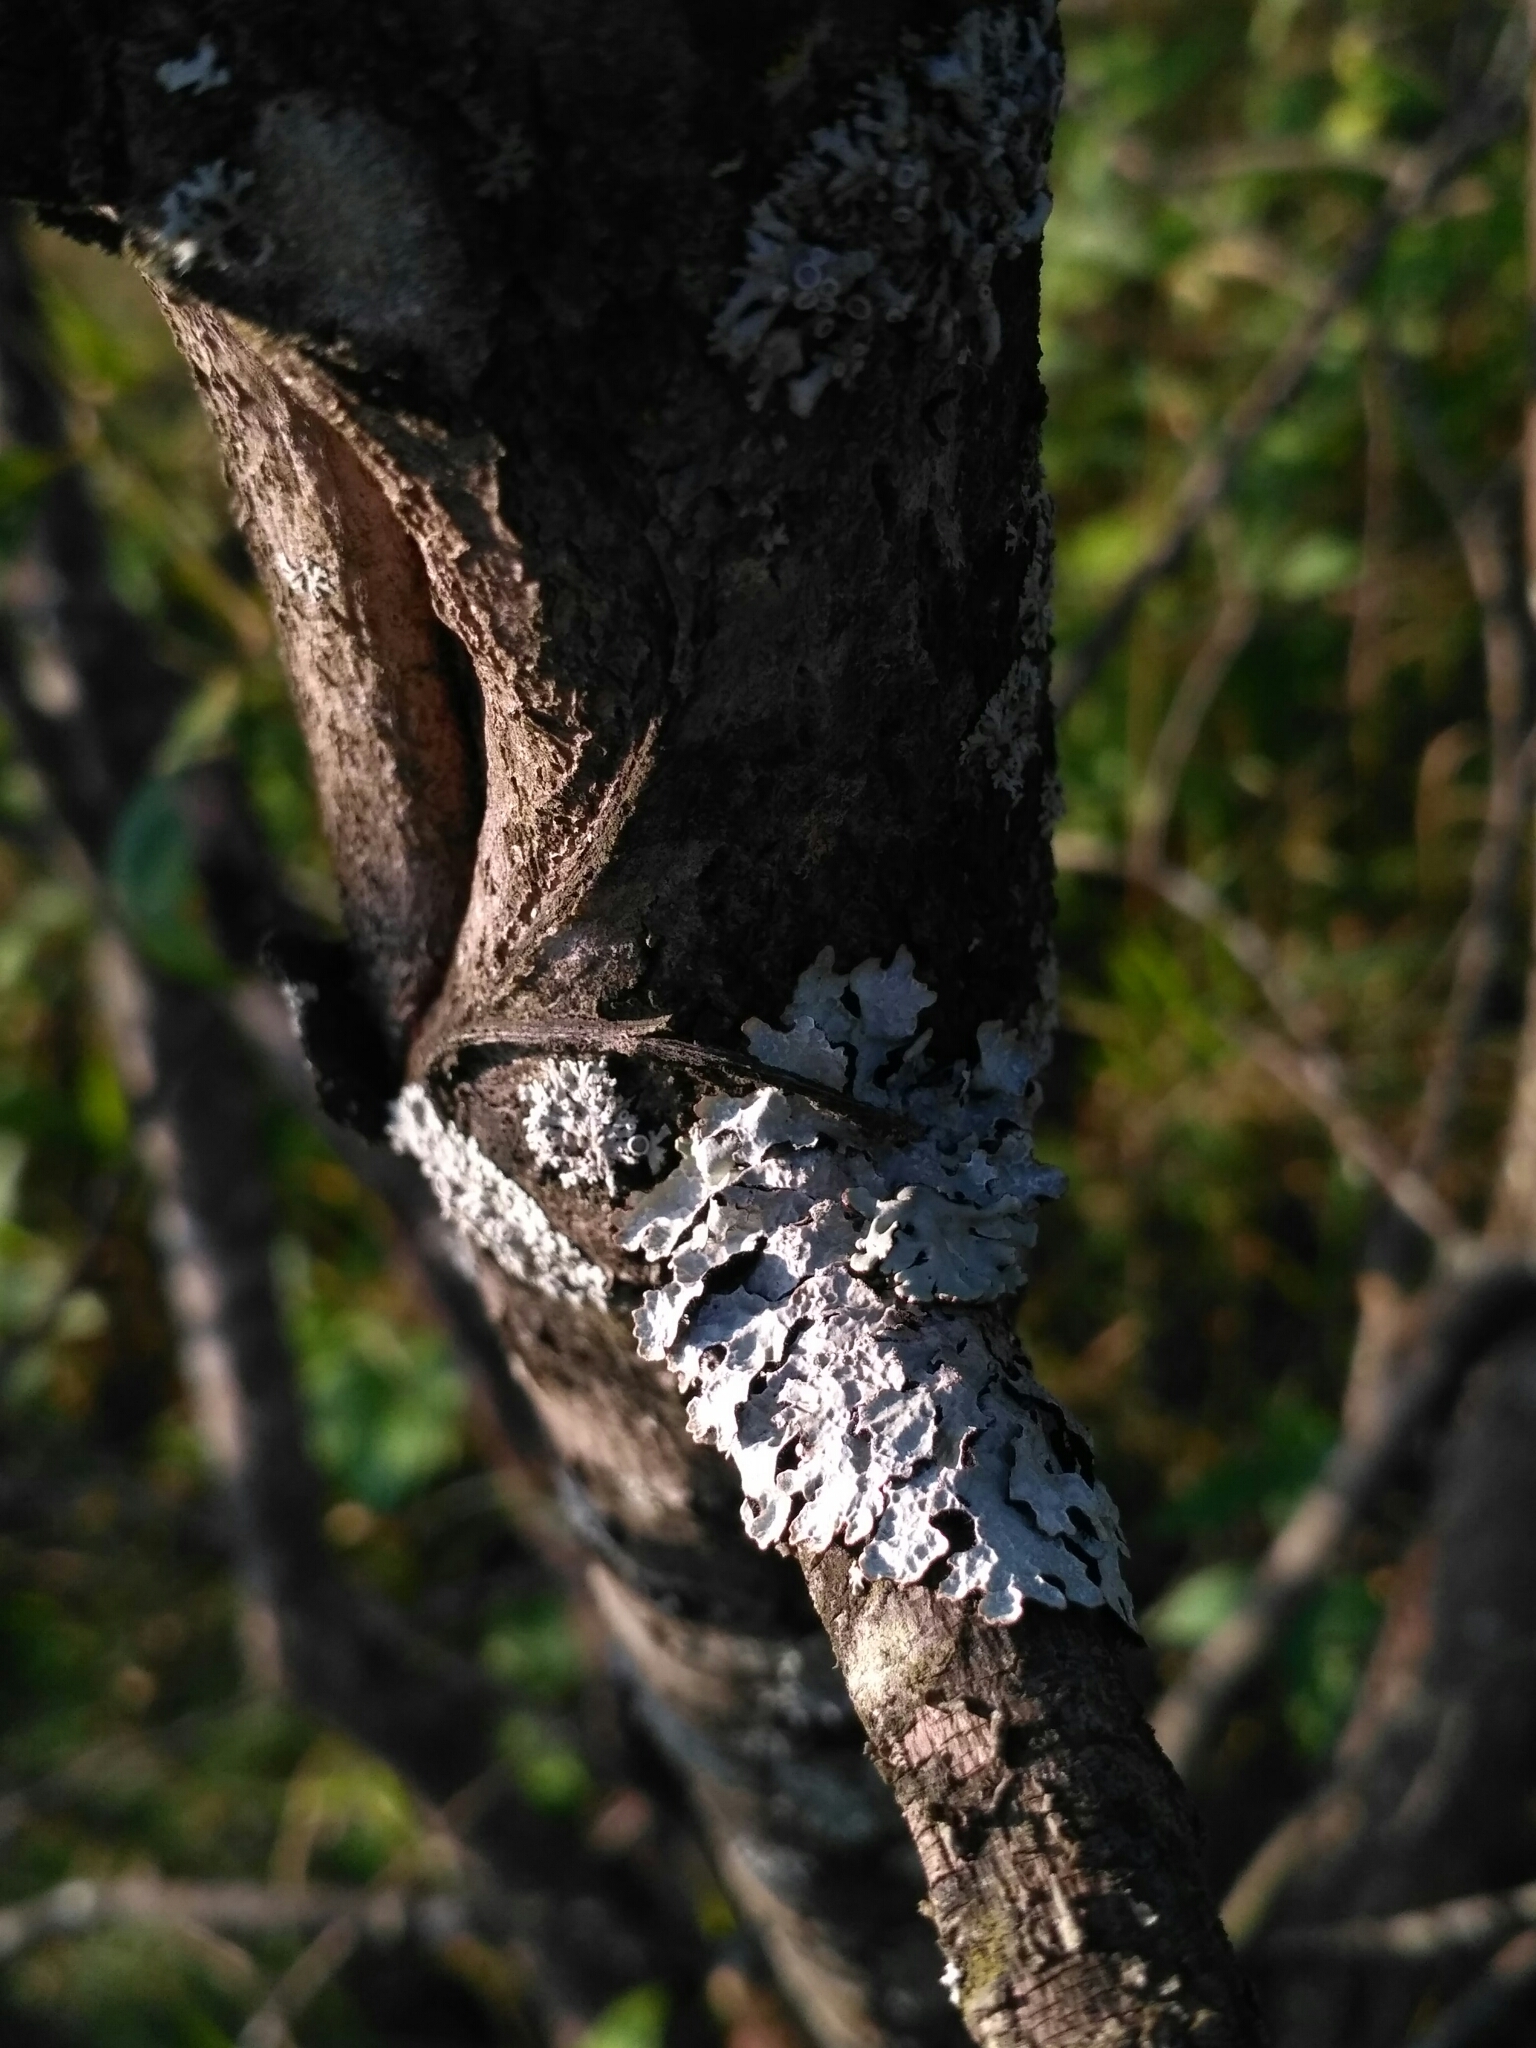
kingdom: Fungi
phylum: Ascomycota
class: Lecanoromycetes
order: Lecanorales
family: Parmeliaceae
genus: Parmelia
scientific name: Parmelia sulcata
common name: Netted shield lichen
